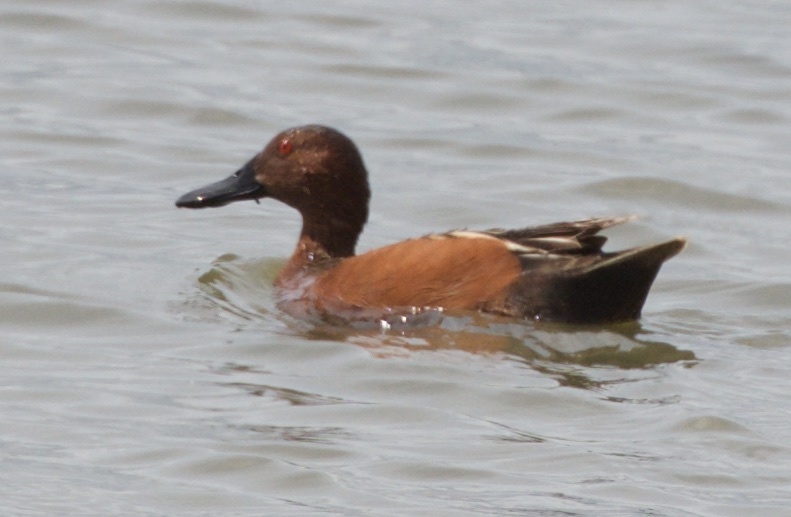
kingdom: Animalia
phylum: Chordata
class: Aves
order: Anseriformes
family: Anatidae
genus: Spatula
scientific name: Spatula cyanoptera
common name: Cinnamon teal
